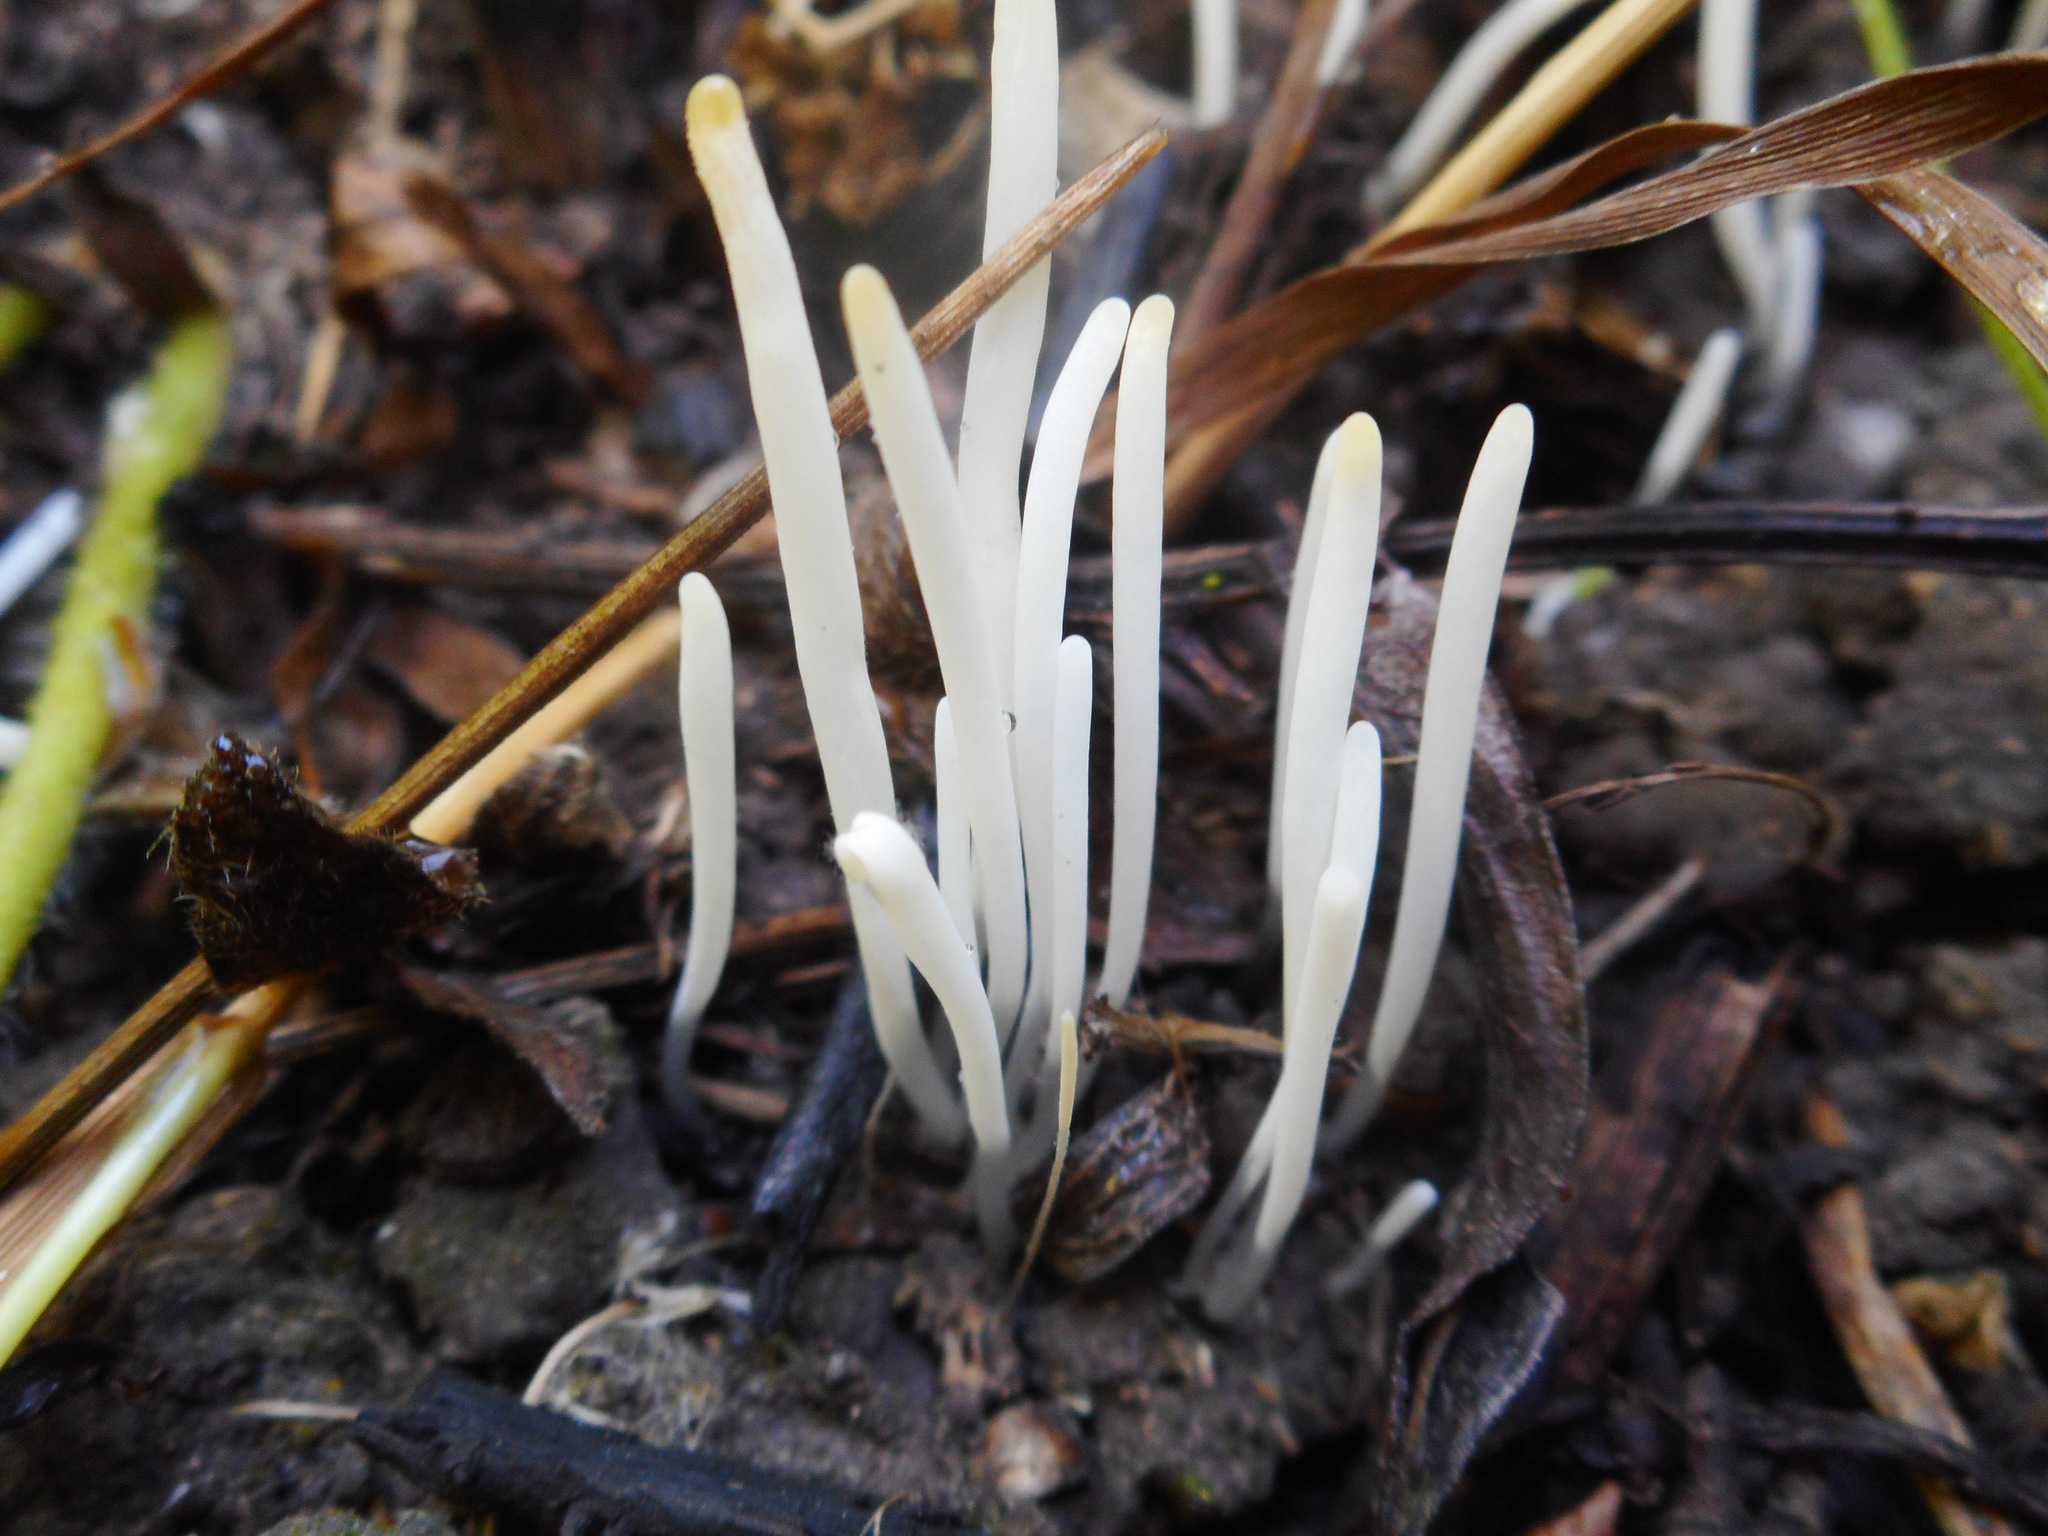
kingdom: Fungi
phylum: Basidiomycota
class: Agaricomycetes
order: Agaricales
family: Clavariaceae
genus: Clavaria
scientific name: Clavaria fragilis
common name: White spindles
